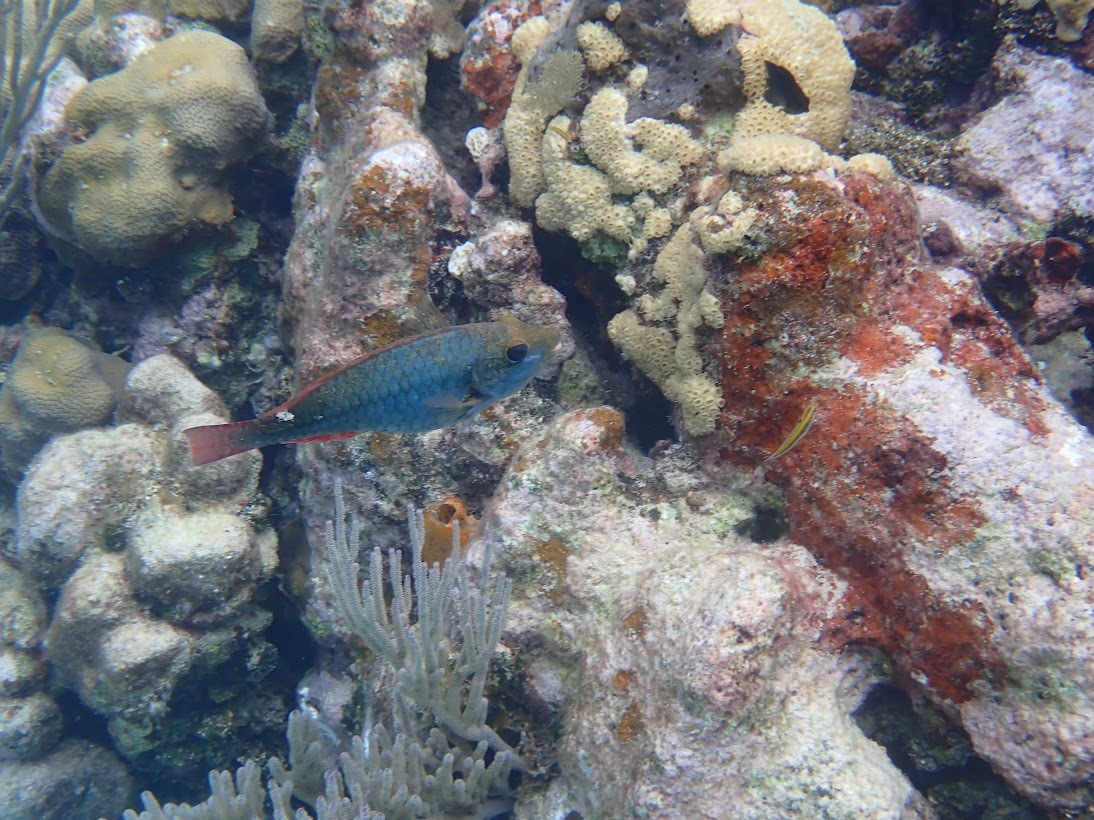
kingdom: Animalia
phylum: Chordata
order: Perciformes
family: Scaridae
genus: Sparisoma
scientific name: Sparisoma aurofrenatum
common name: Redband parrotfish
